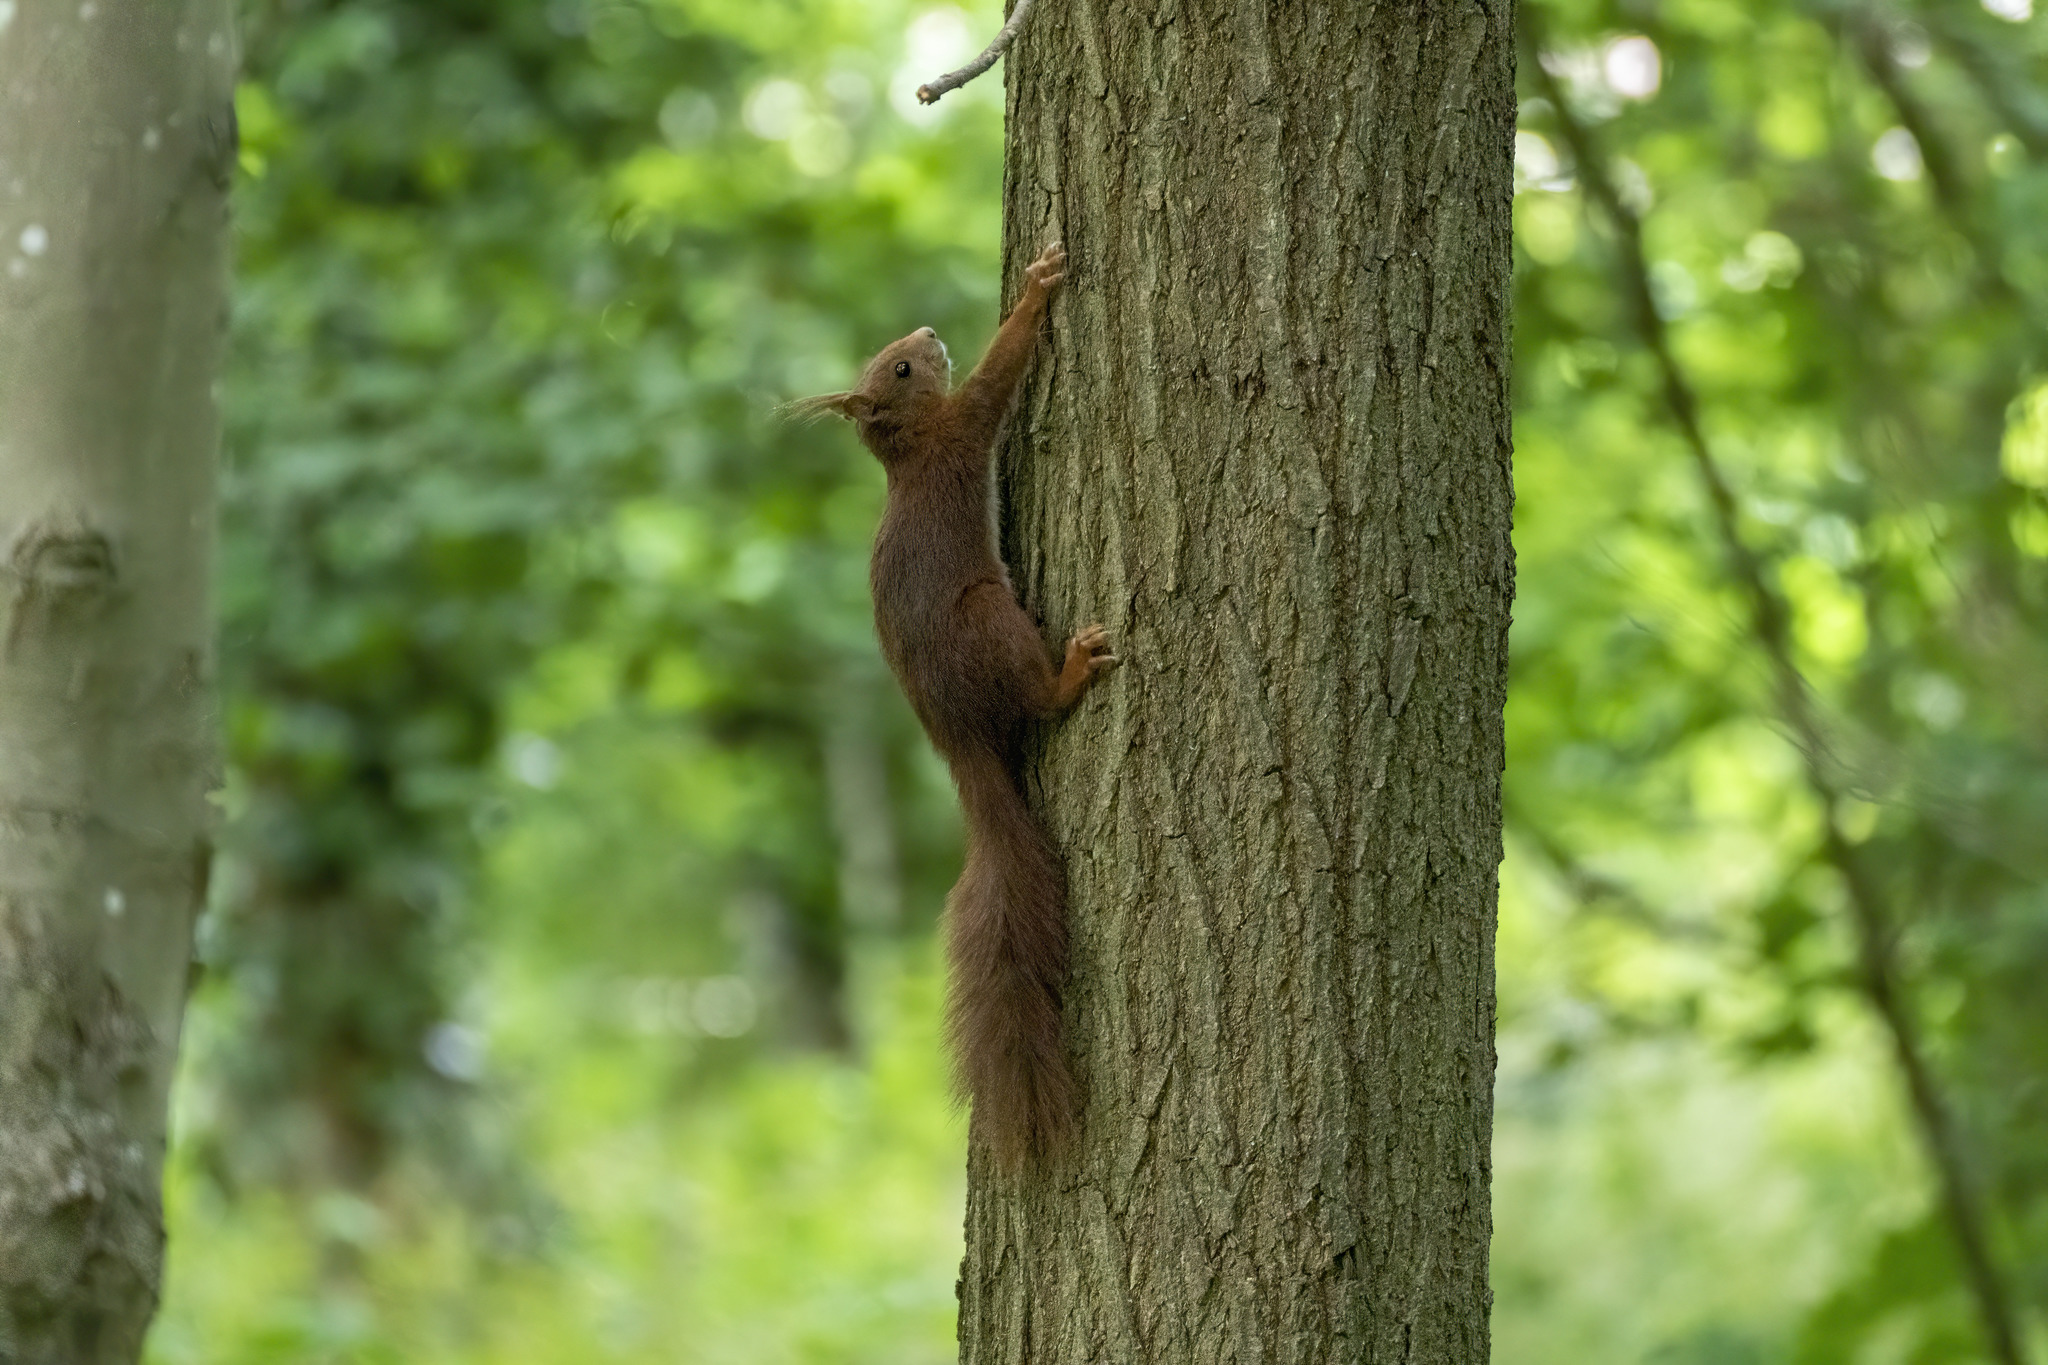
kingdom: Animalia
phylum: Chordata
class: Mammalia
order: Rodentia
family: Sciuridae
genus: Sciurus
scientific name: Sciurus vulgaris
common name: Eurasian red squirrel
